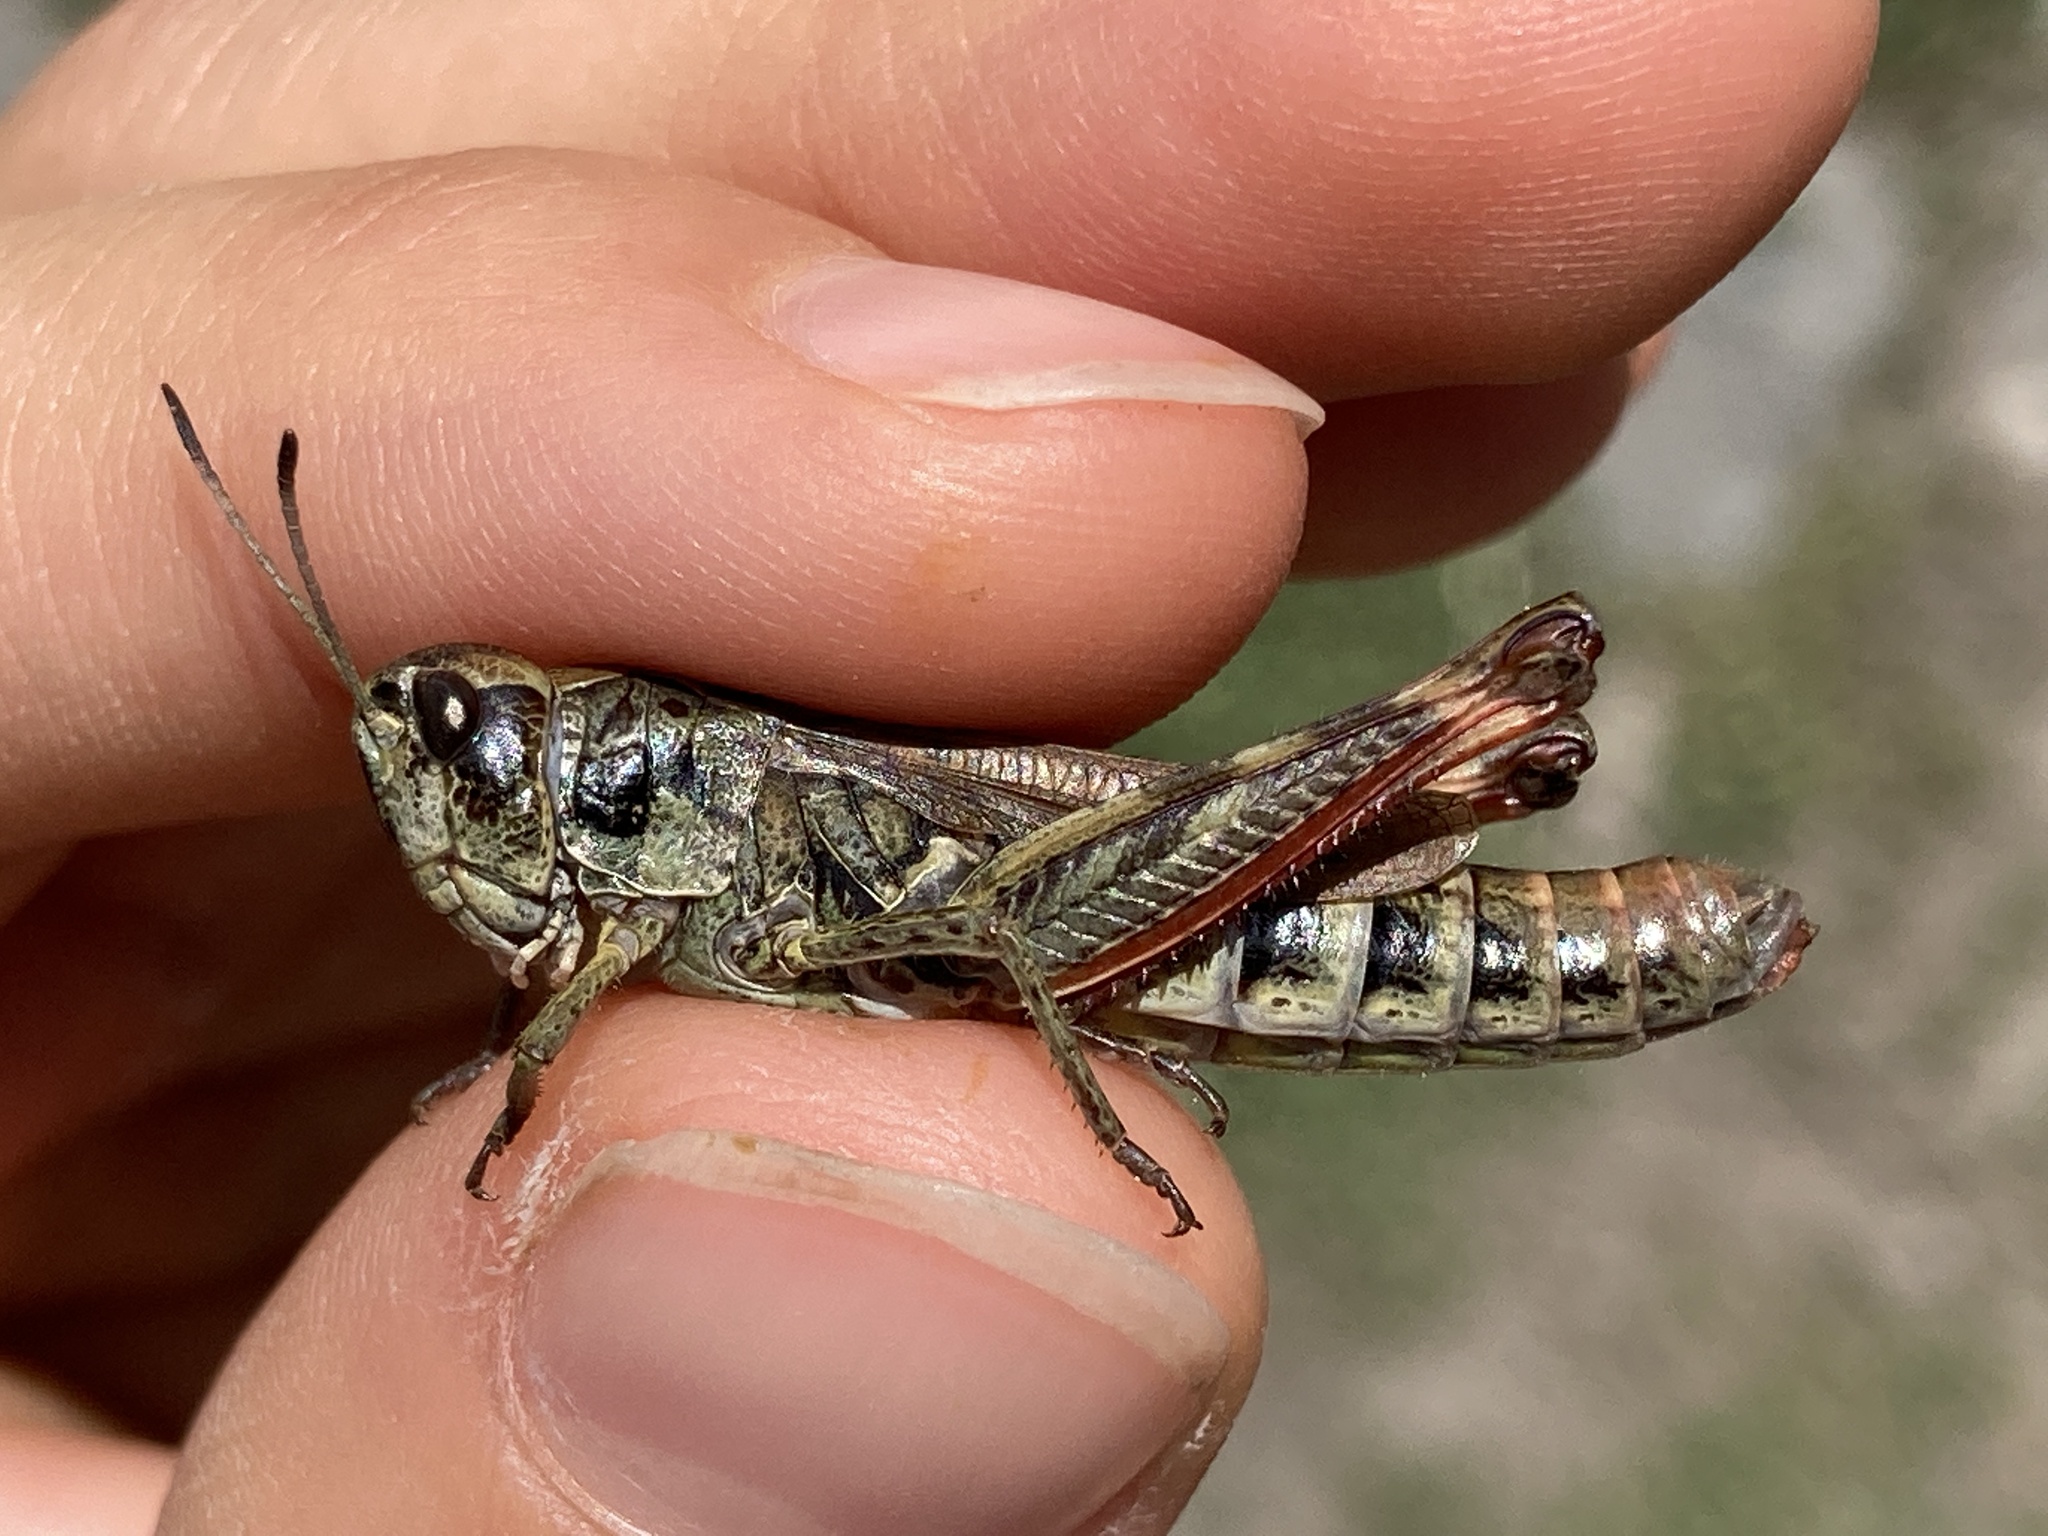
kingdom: Animalia
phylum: Arthropoda
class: Insecta
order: Orthoptera
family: Acrididae
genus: Gomphocerus
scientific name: Gomphocerus sibiricus
